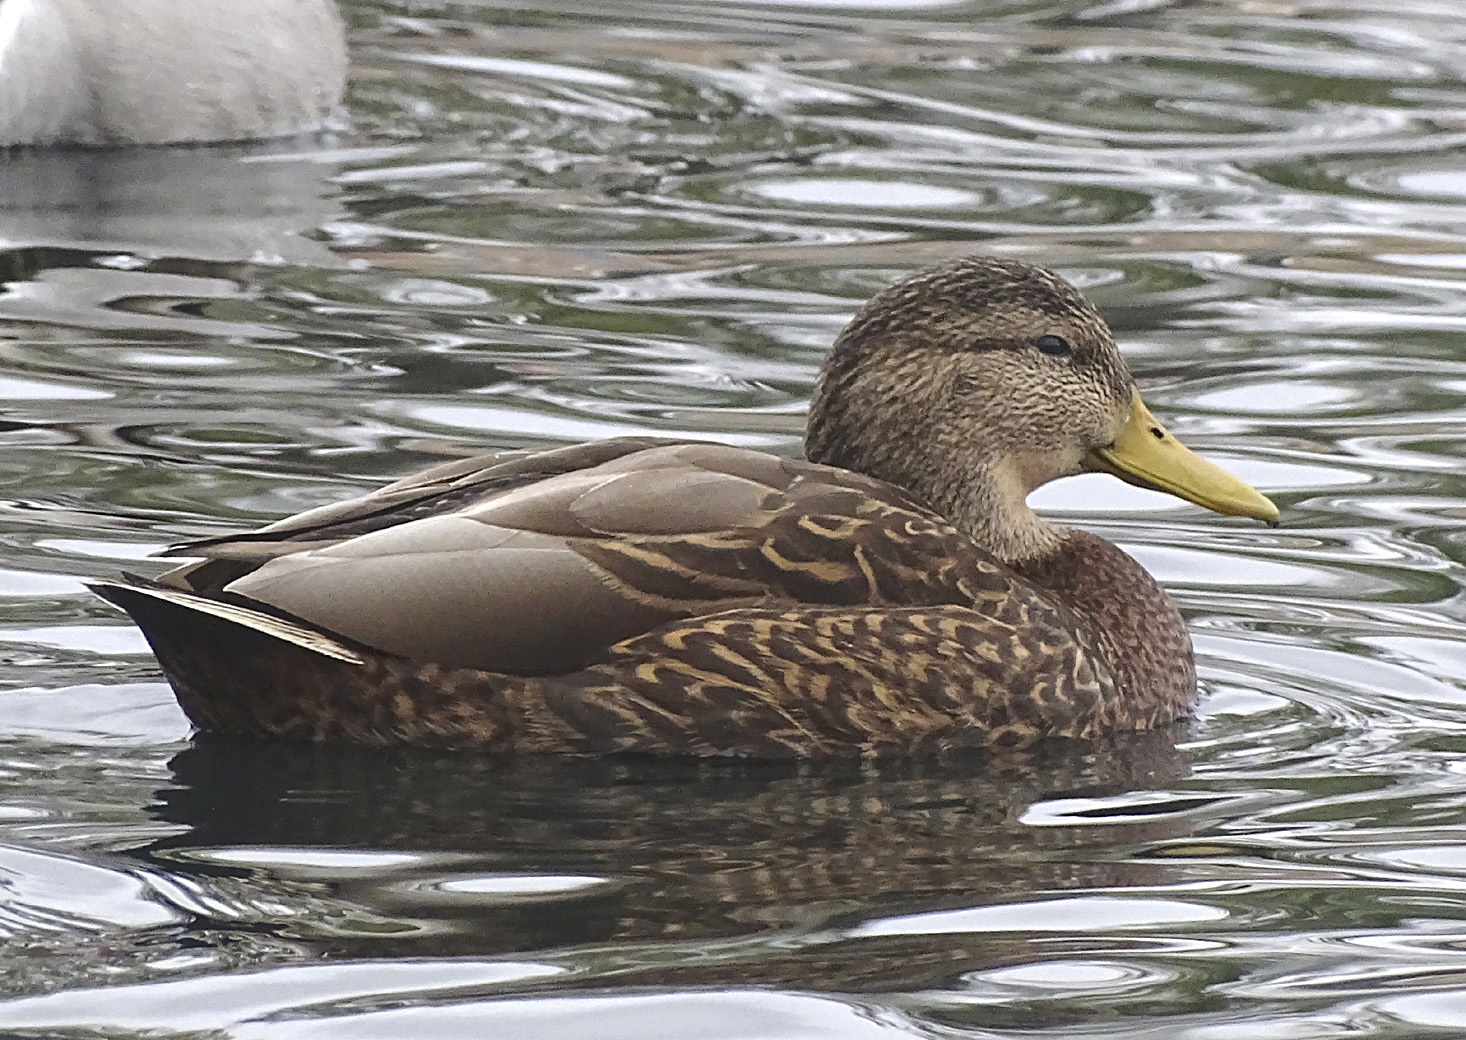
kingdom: Animalia
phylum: Chordata
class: Aves
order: Anseriformes
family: Anatidae
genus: Anas
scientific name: Anas diazi
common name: Mexican duck
